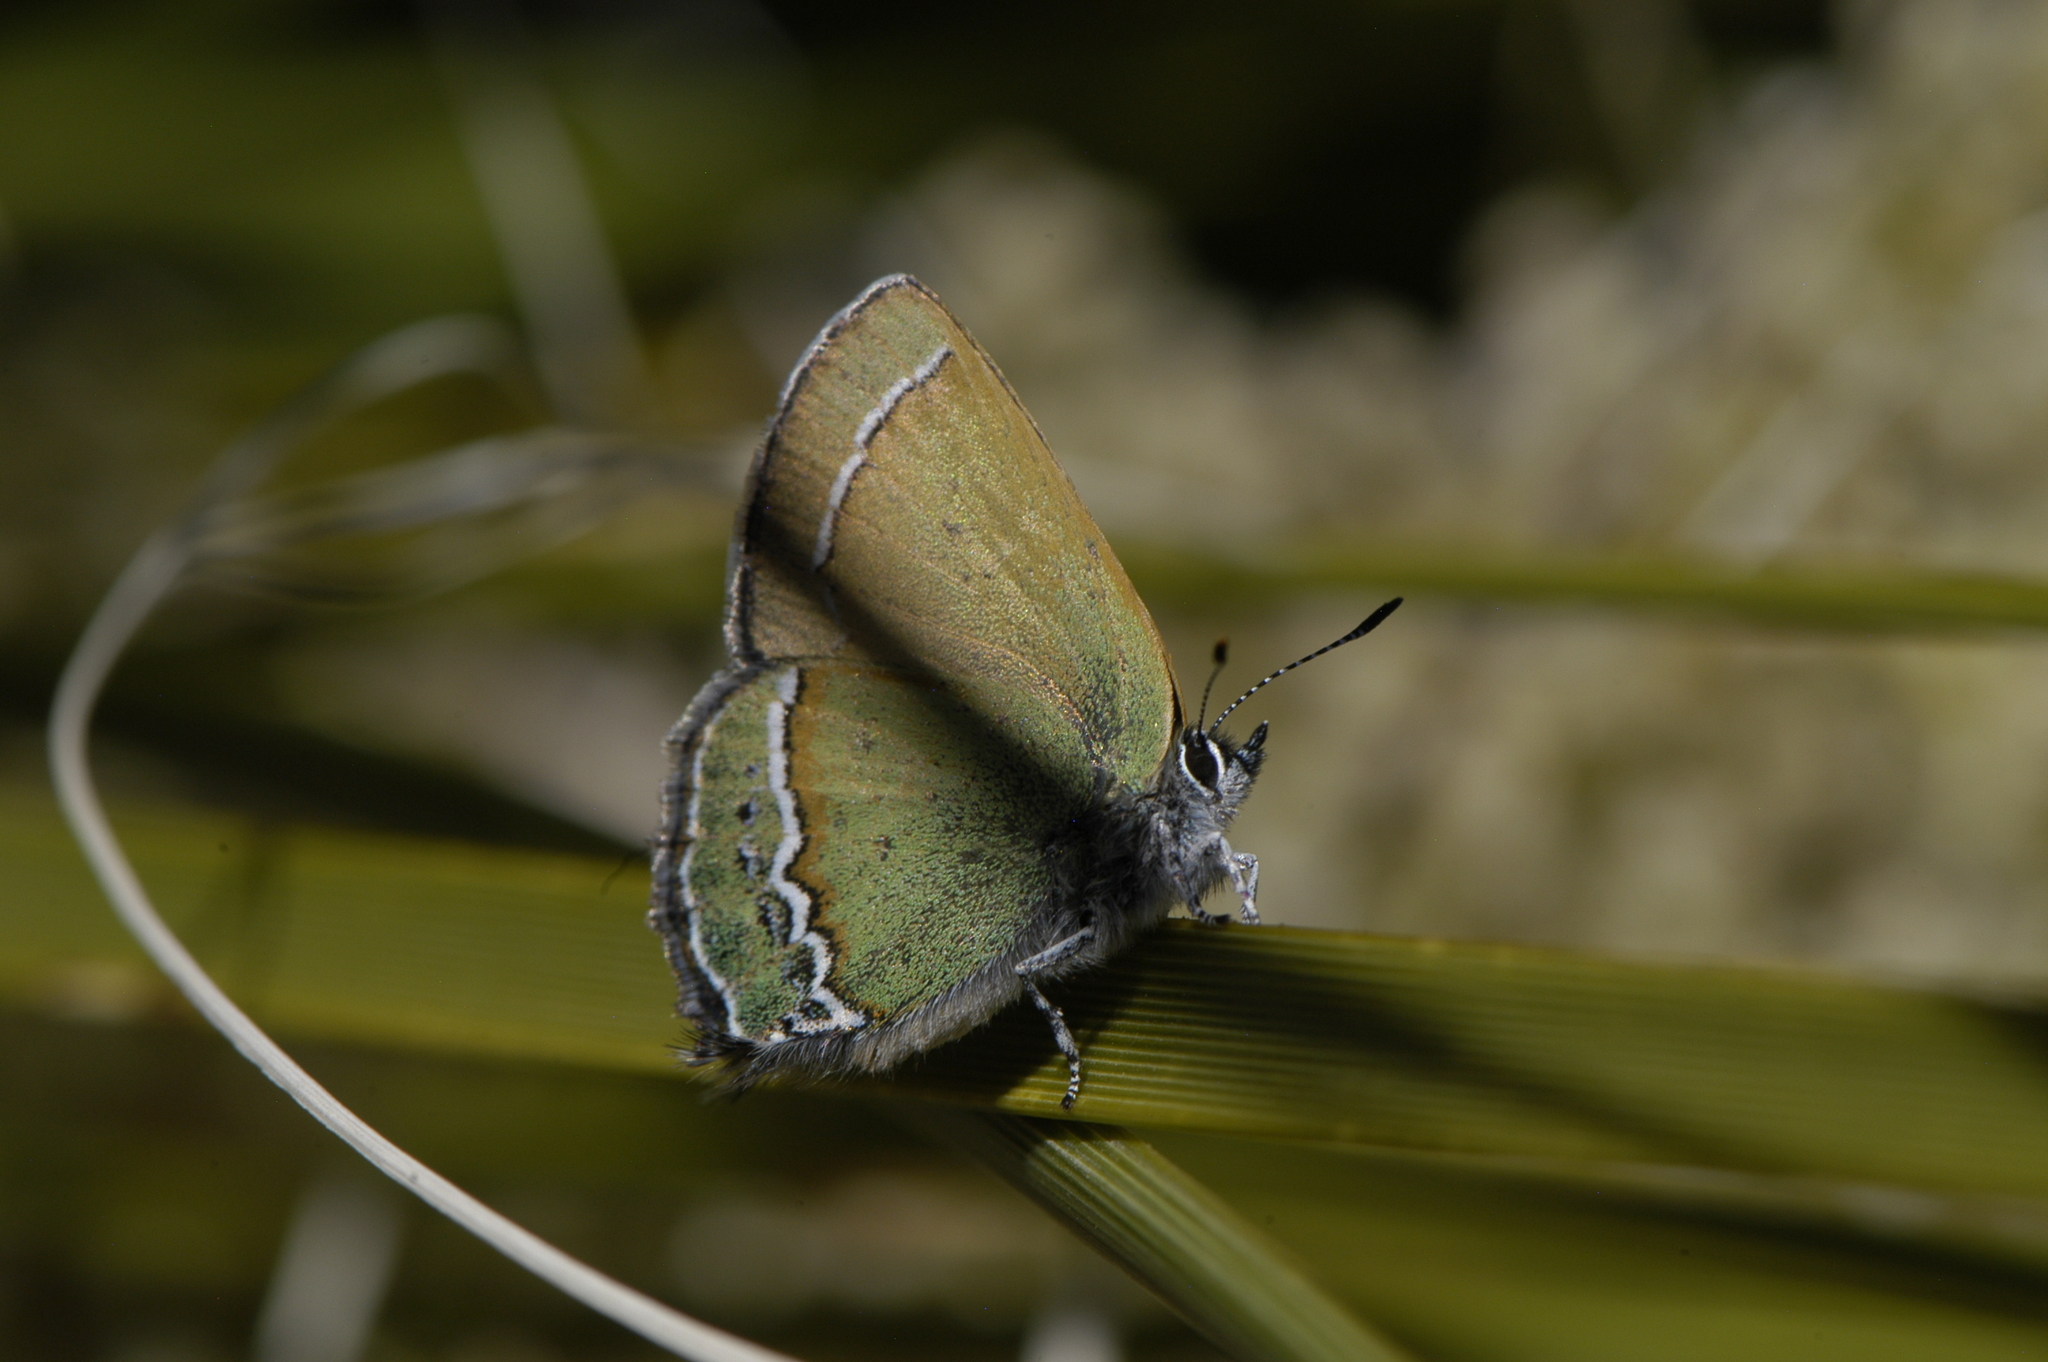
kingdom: Animalia
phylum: Arthropoda
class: Insecta
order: Lepidoptera
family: Lycaenidae
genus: Sandia
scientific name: Sandia mcfarlandi
